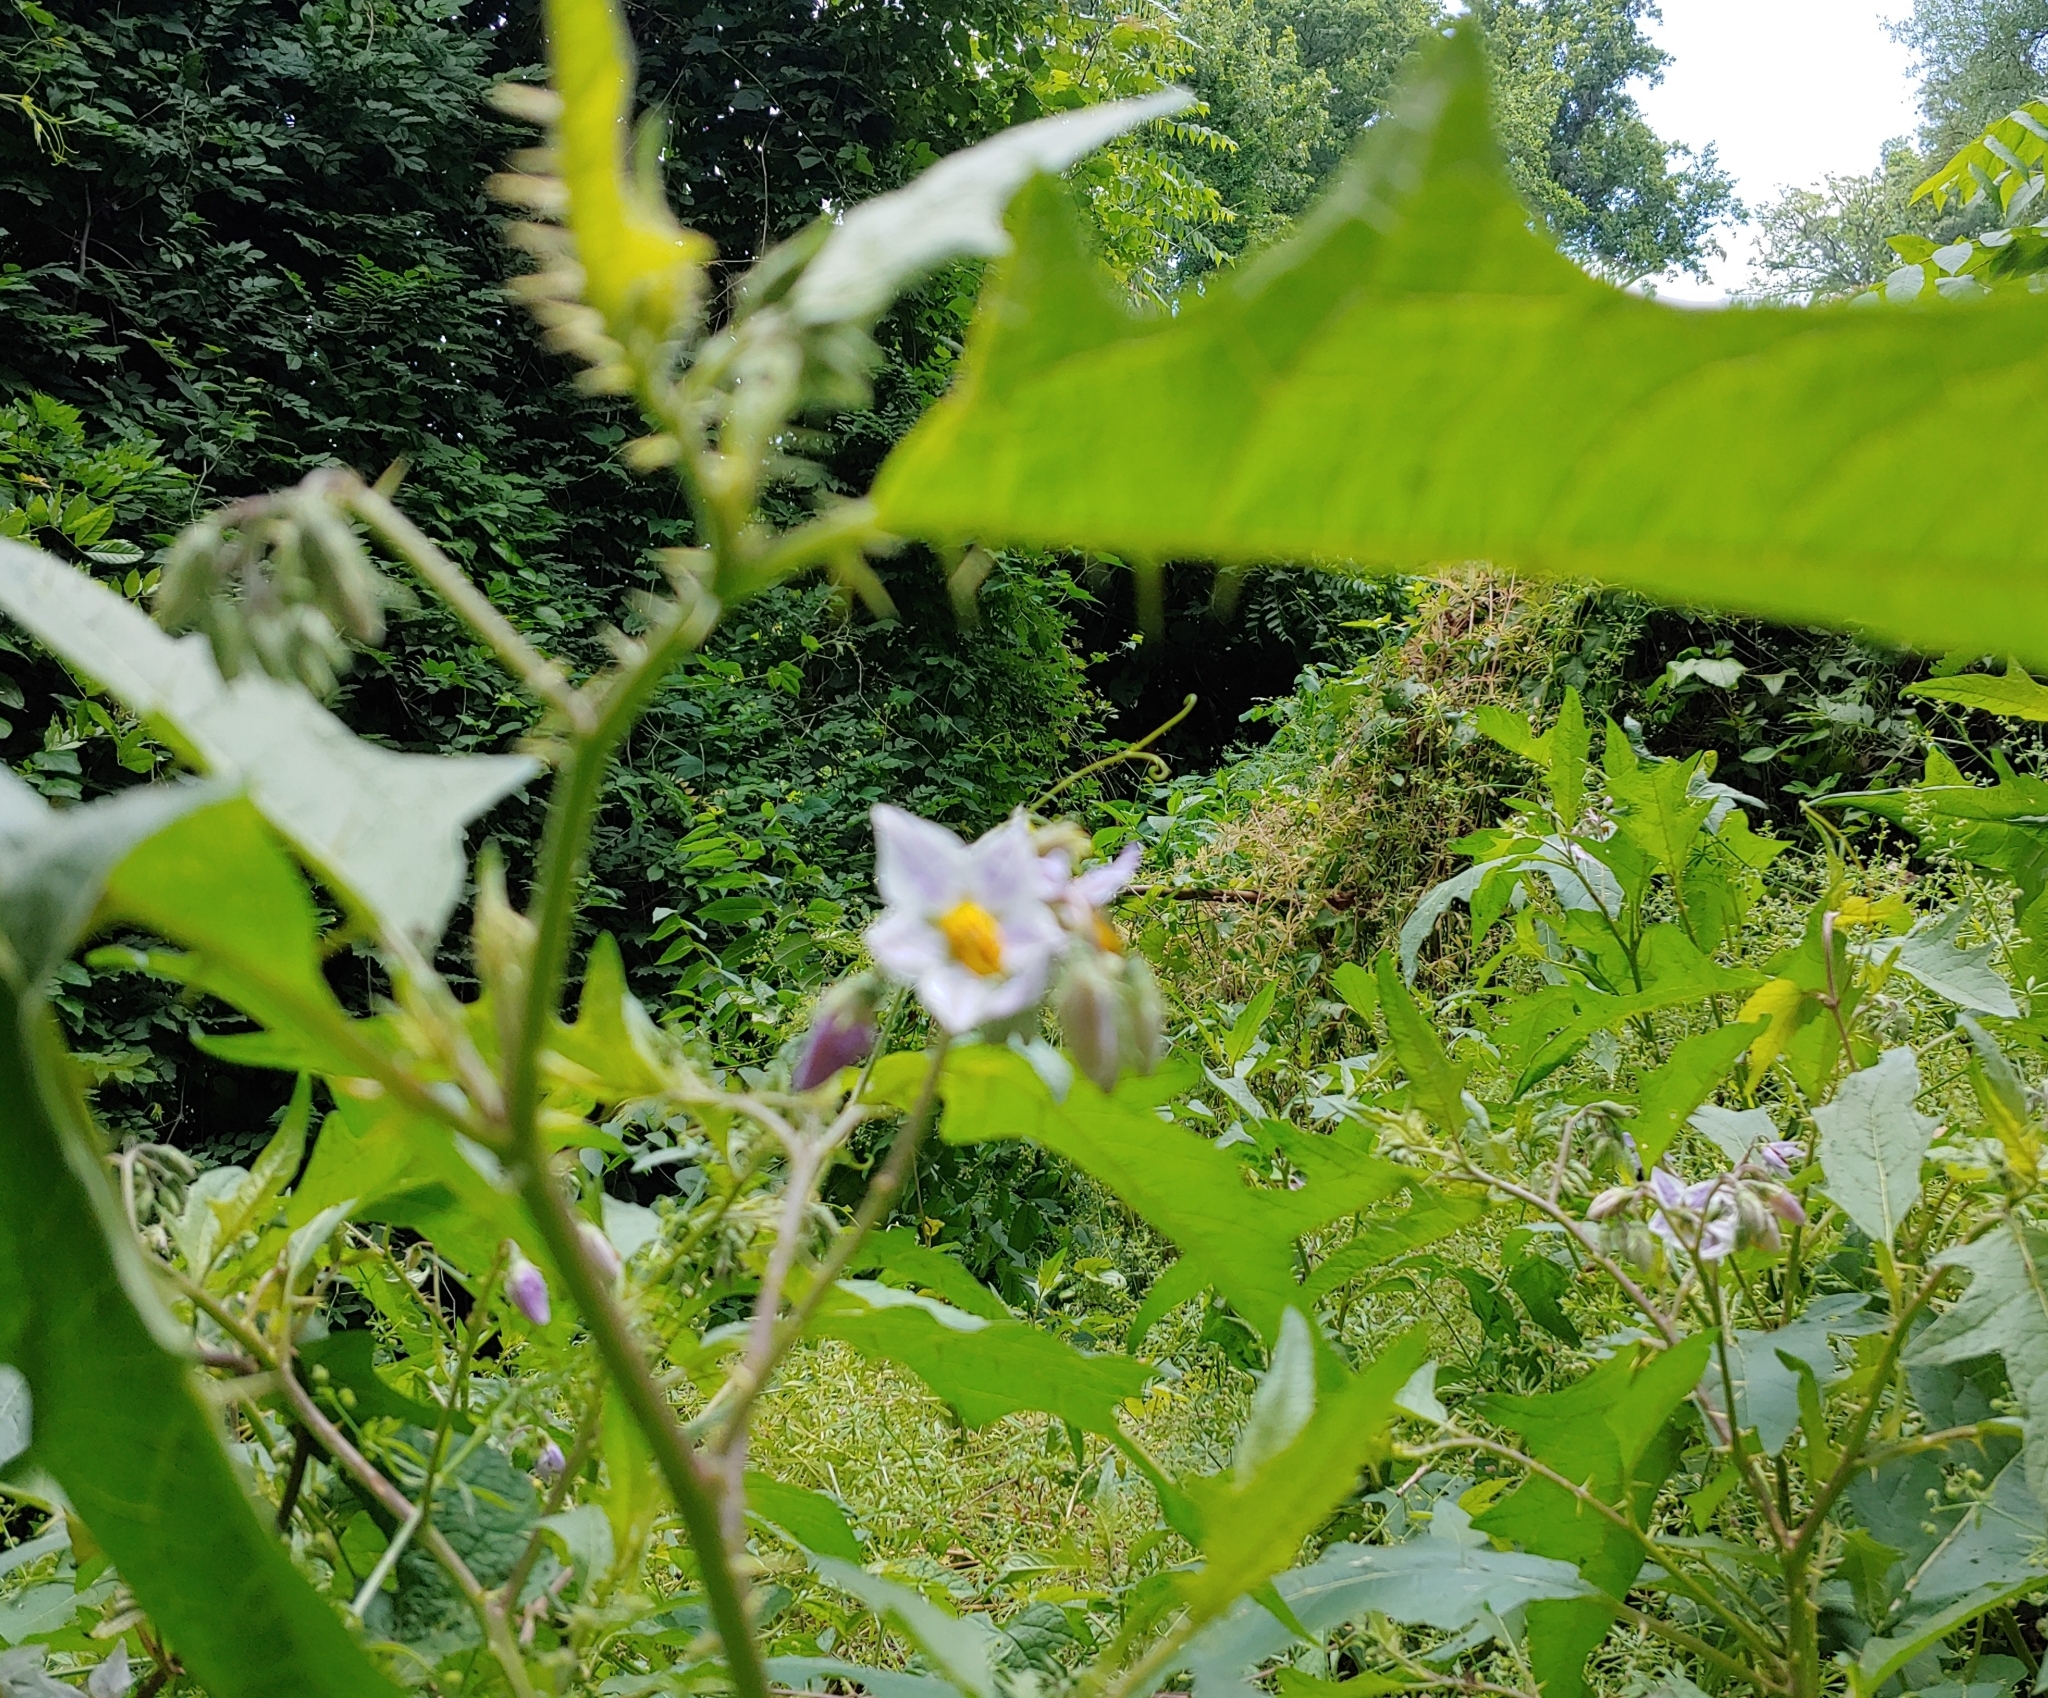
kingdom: Plantae
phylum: Tracheophyta
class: Magnoliopsida
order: Solanales
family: Solanaceae
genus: Solanum
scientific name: Solanum carolinense
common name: Horse-nettle
